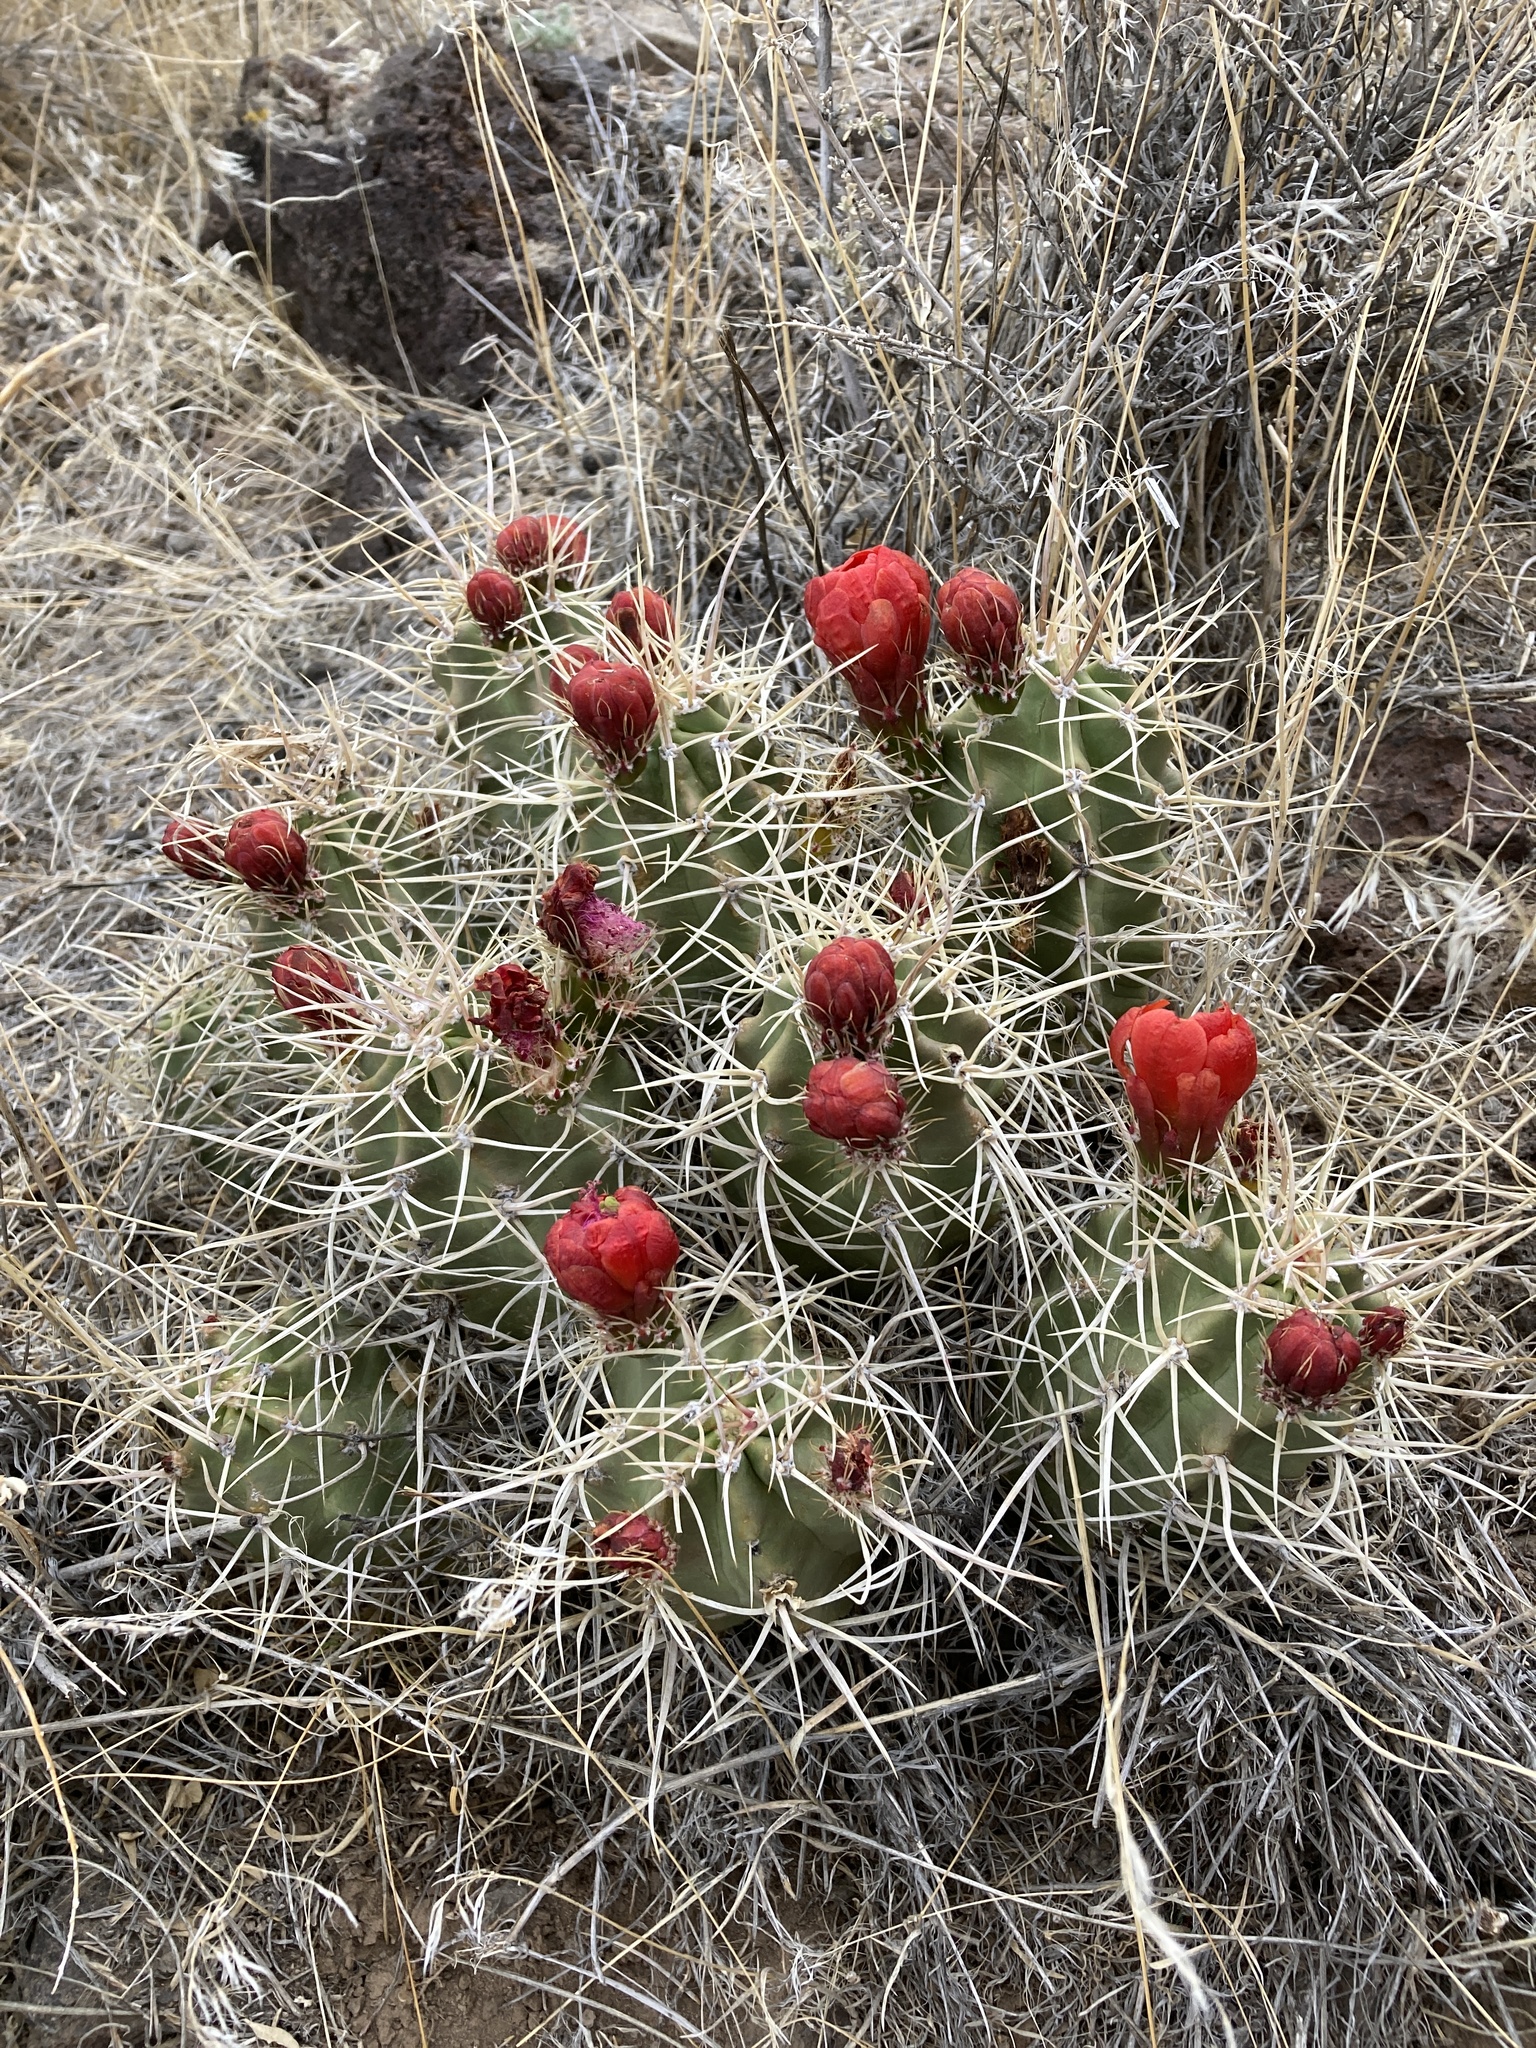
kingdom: Plantae
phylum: Tracheophyta
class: Magnoliopsida
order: Caryophyllales
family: Cactaceae
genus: Echinocereus
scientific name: Echinocereus triglochidiatus
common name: Claretcup hedgehog
